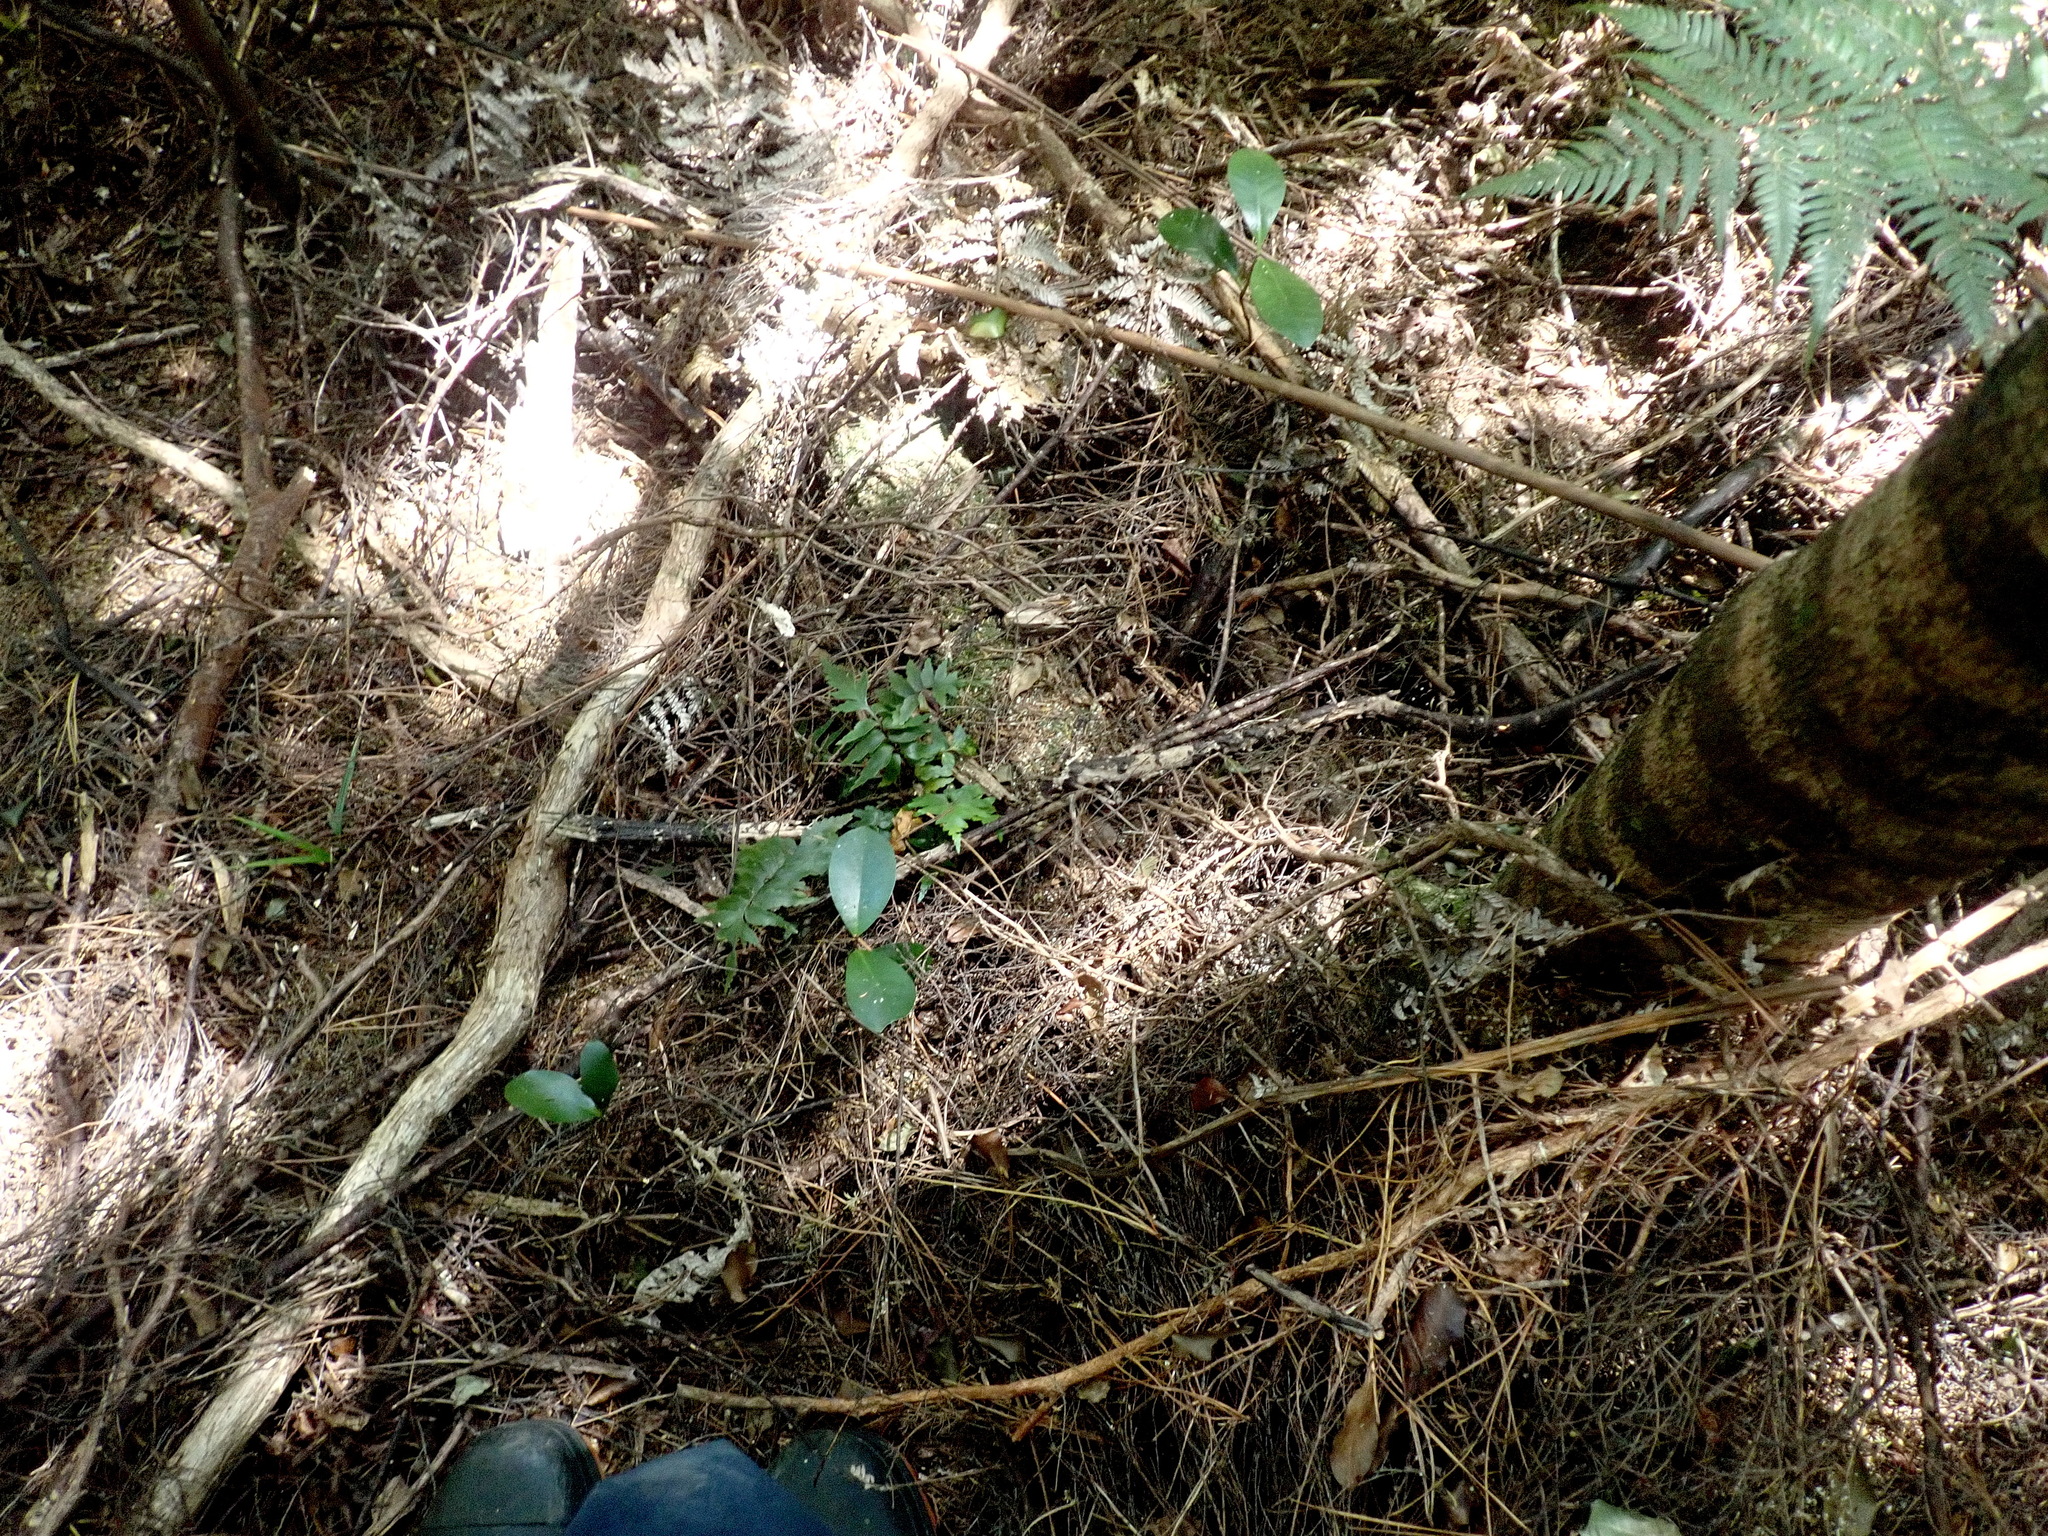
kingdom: Plantae
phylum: Tracheophyta
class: Polypodiopsida
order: Polypodiales
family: Aspleniaceae
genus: Asplenium
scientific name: Asplenium polyodon
